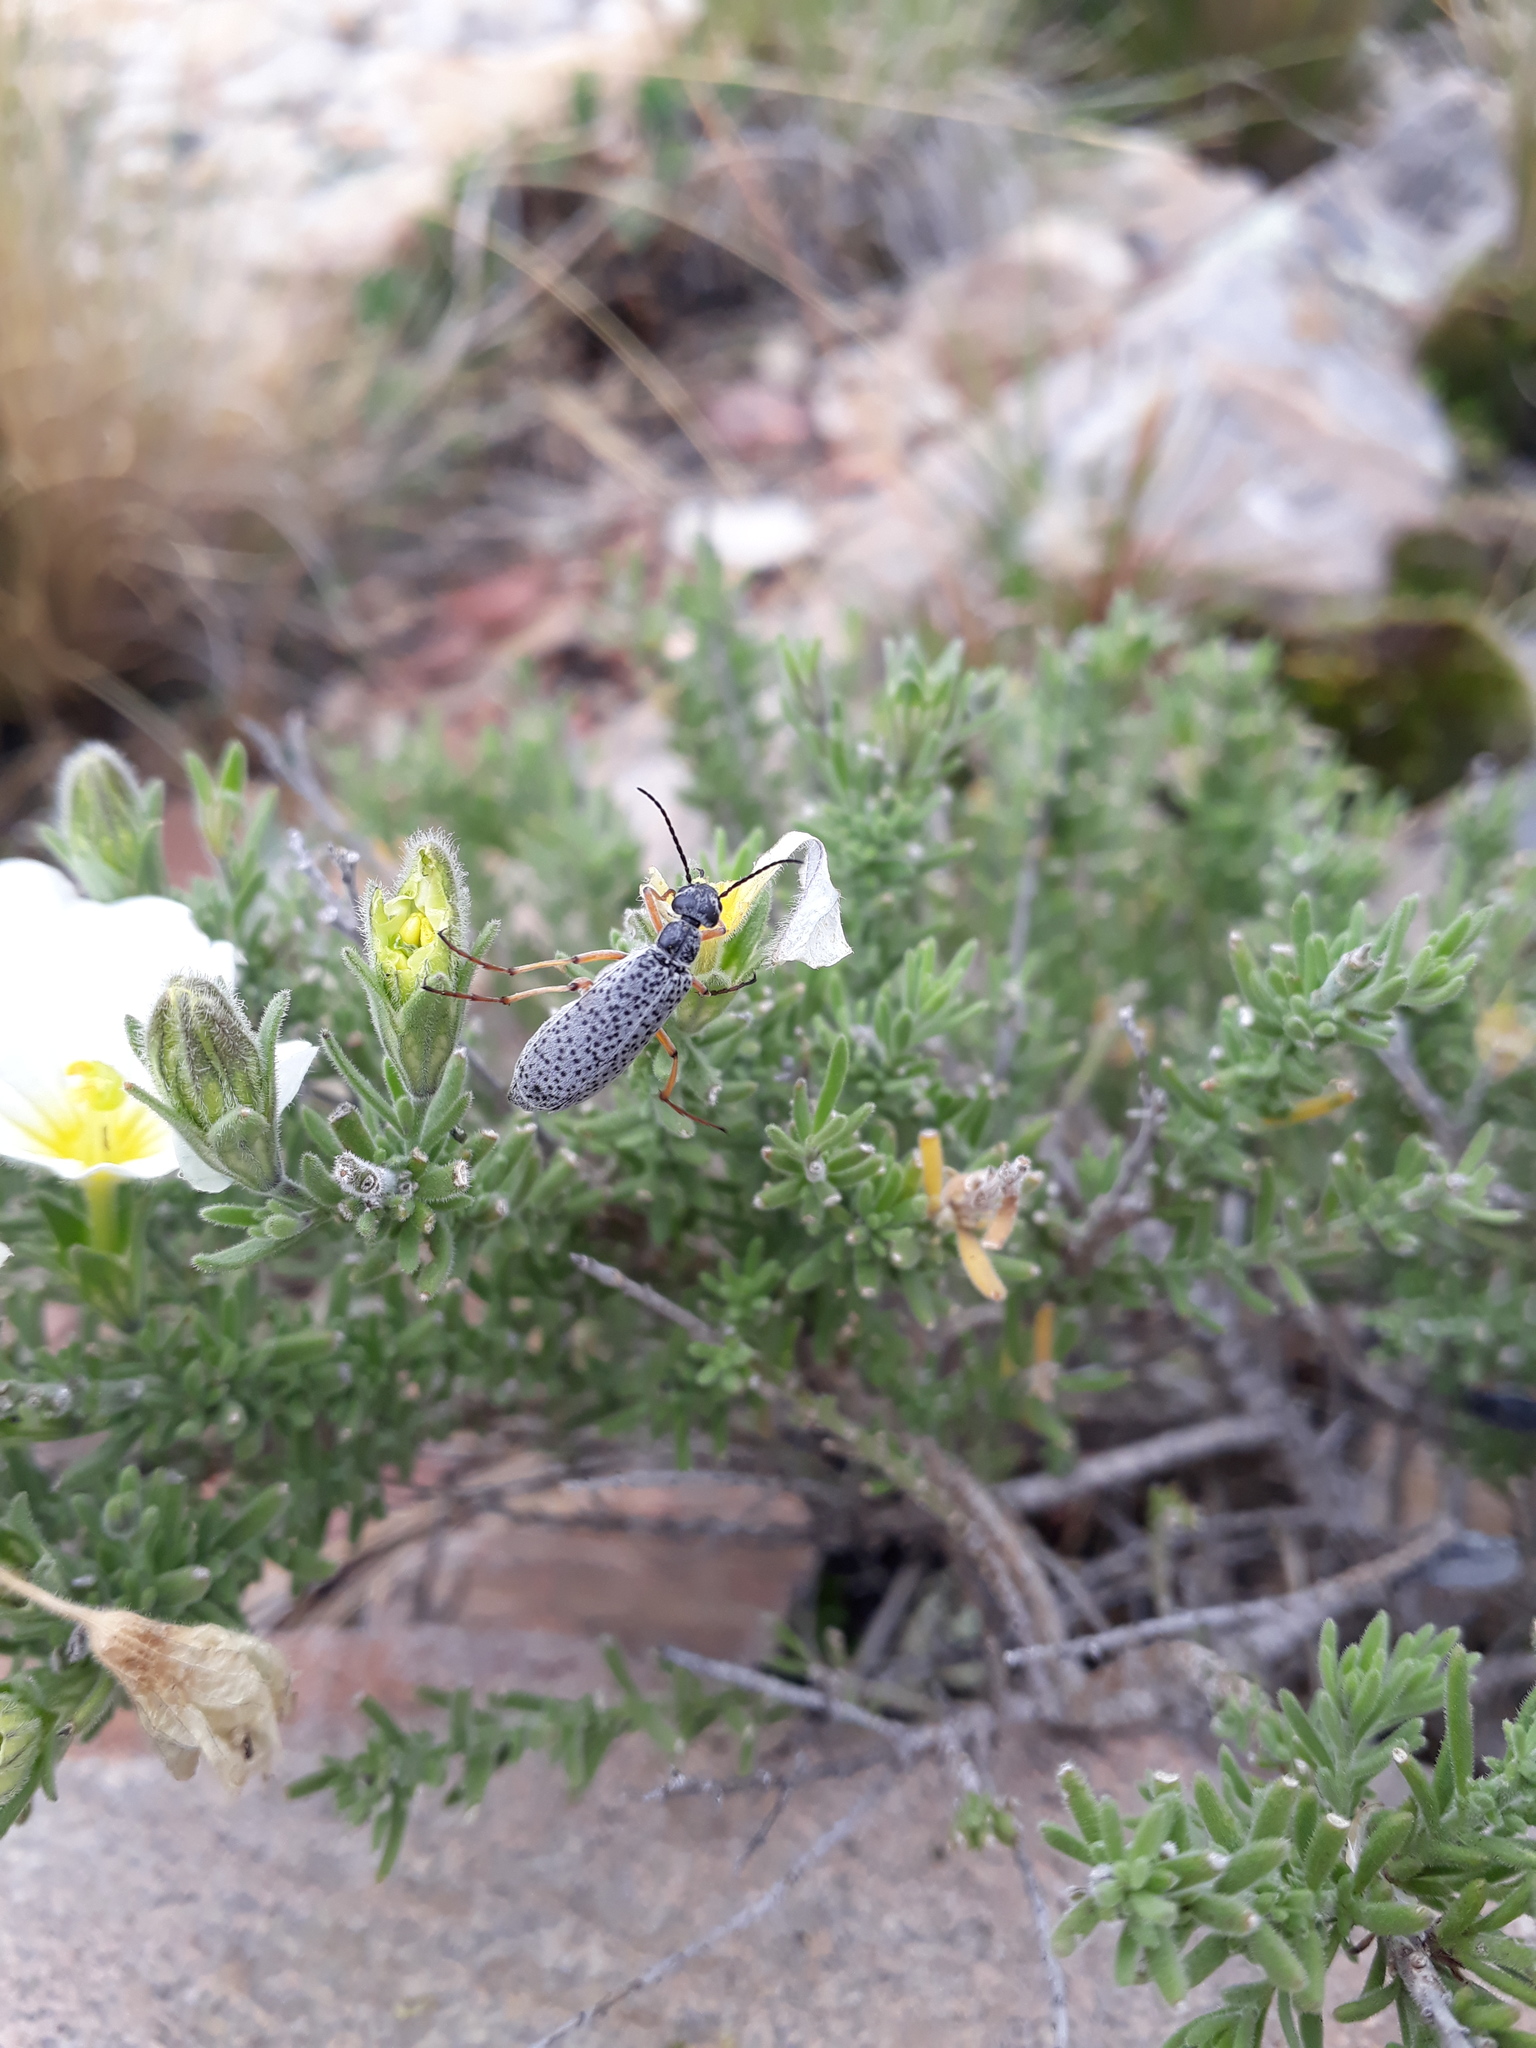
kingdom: Animalia
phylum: Arthropoda
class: Insecta
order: Coleoptera
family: Meloidae
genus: Epicauta
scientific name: Epicauta
